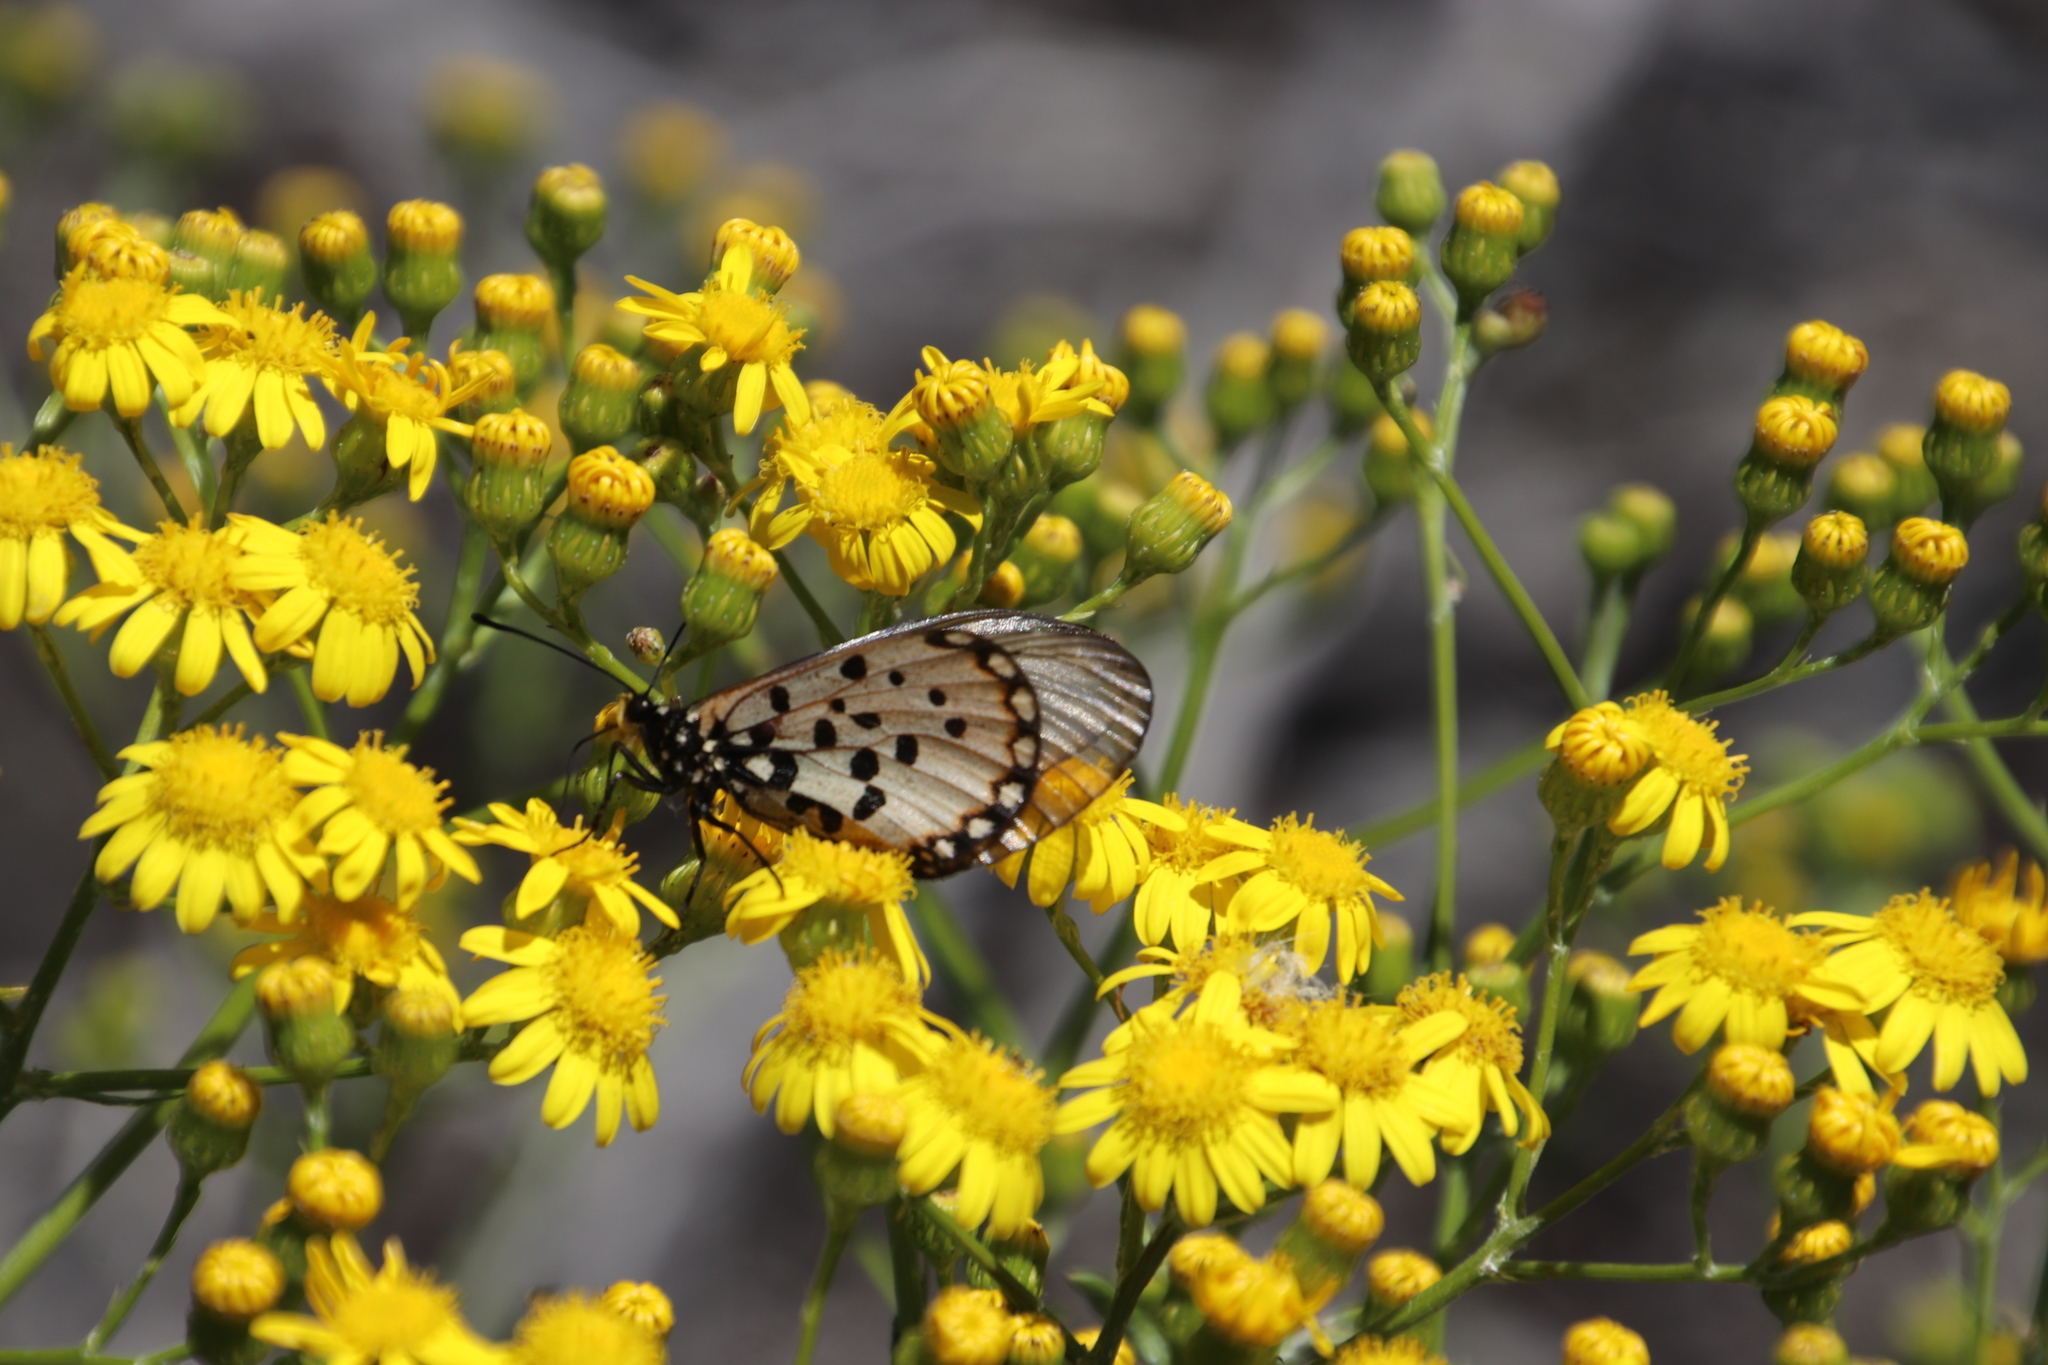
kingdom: Animalia
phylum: Arthropoda
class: Insecta
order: Lepidoptera
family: Nymphalidae
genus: Acraea
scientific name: Acraea horta
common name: Garden acraea
